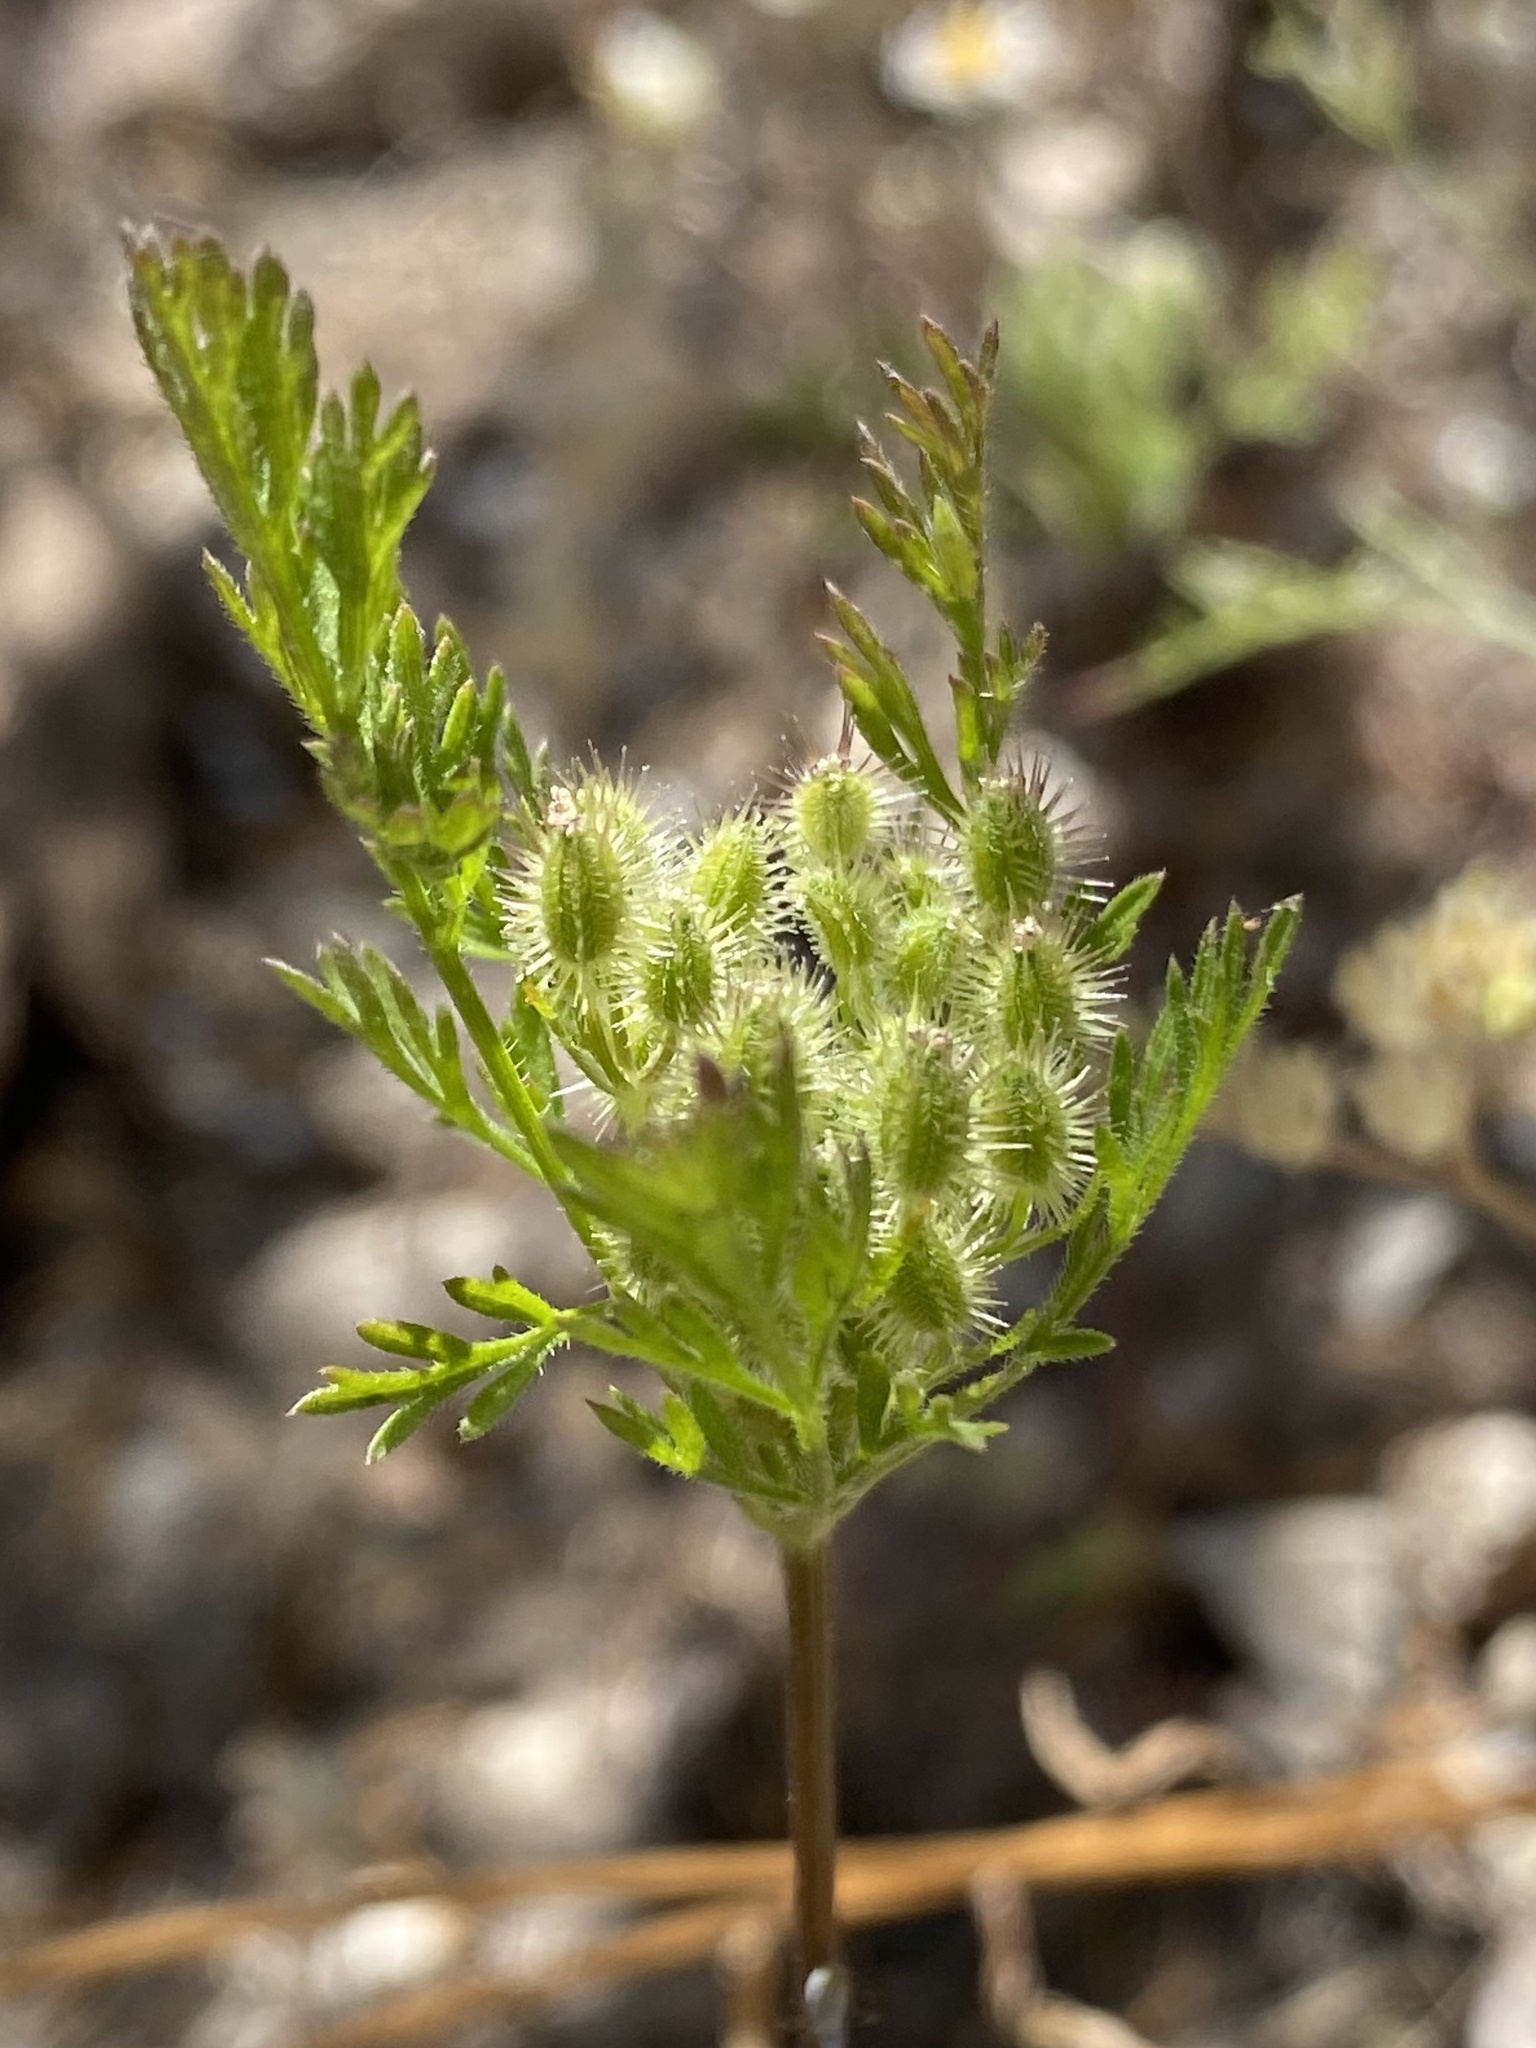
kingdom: Plantae
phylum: Tracheophyta
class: Magnoliopsida
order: Apiales
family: Apiaceae
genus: Daucus
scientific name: Daucus pusillus
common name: Southwest wild carrot
